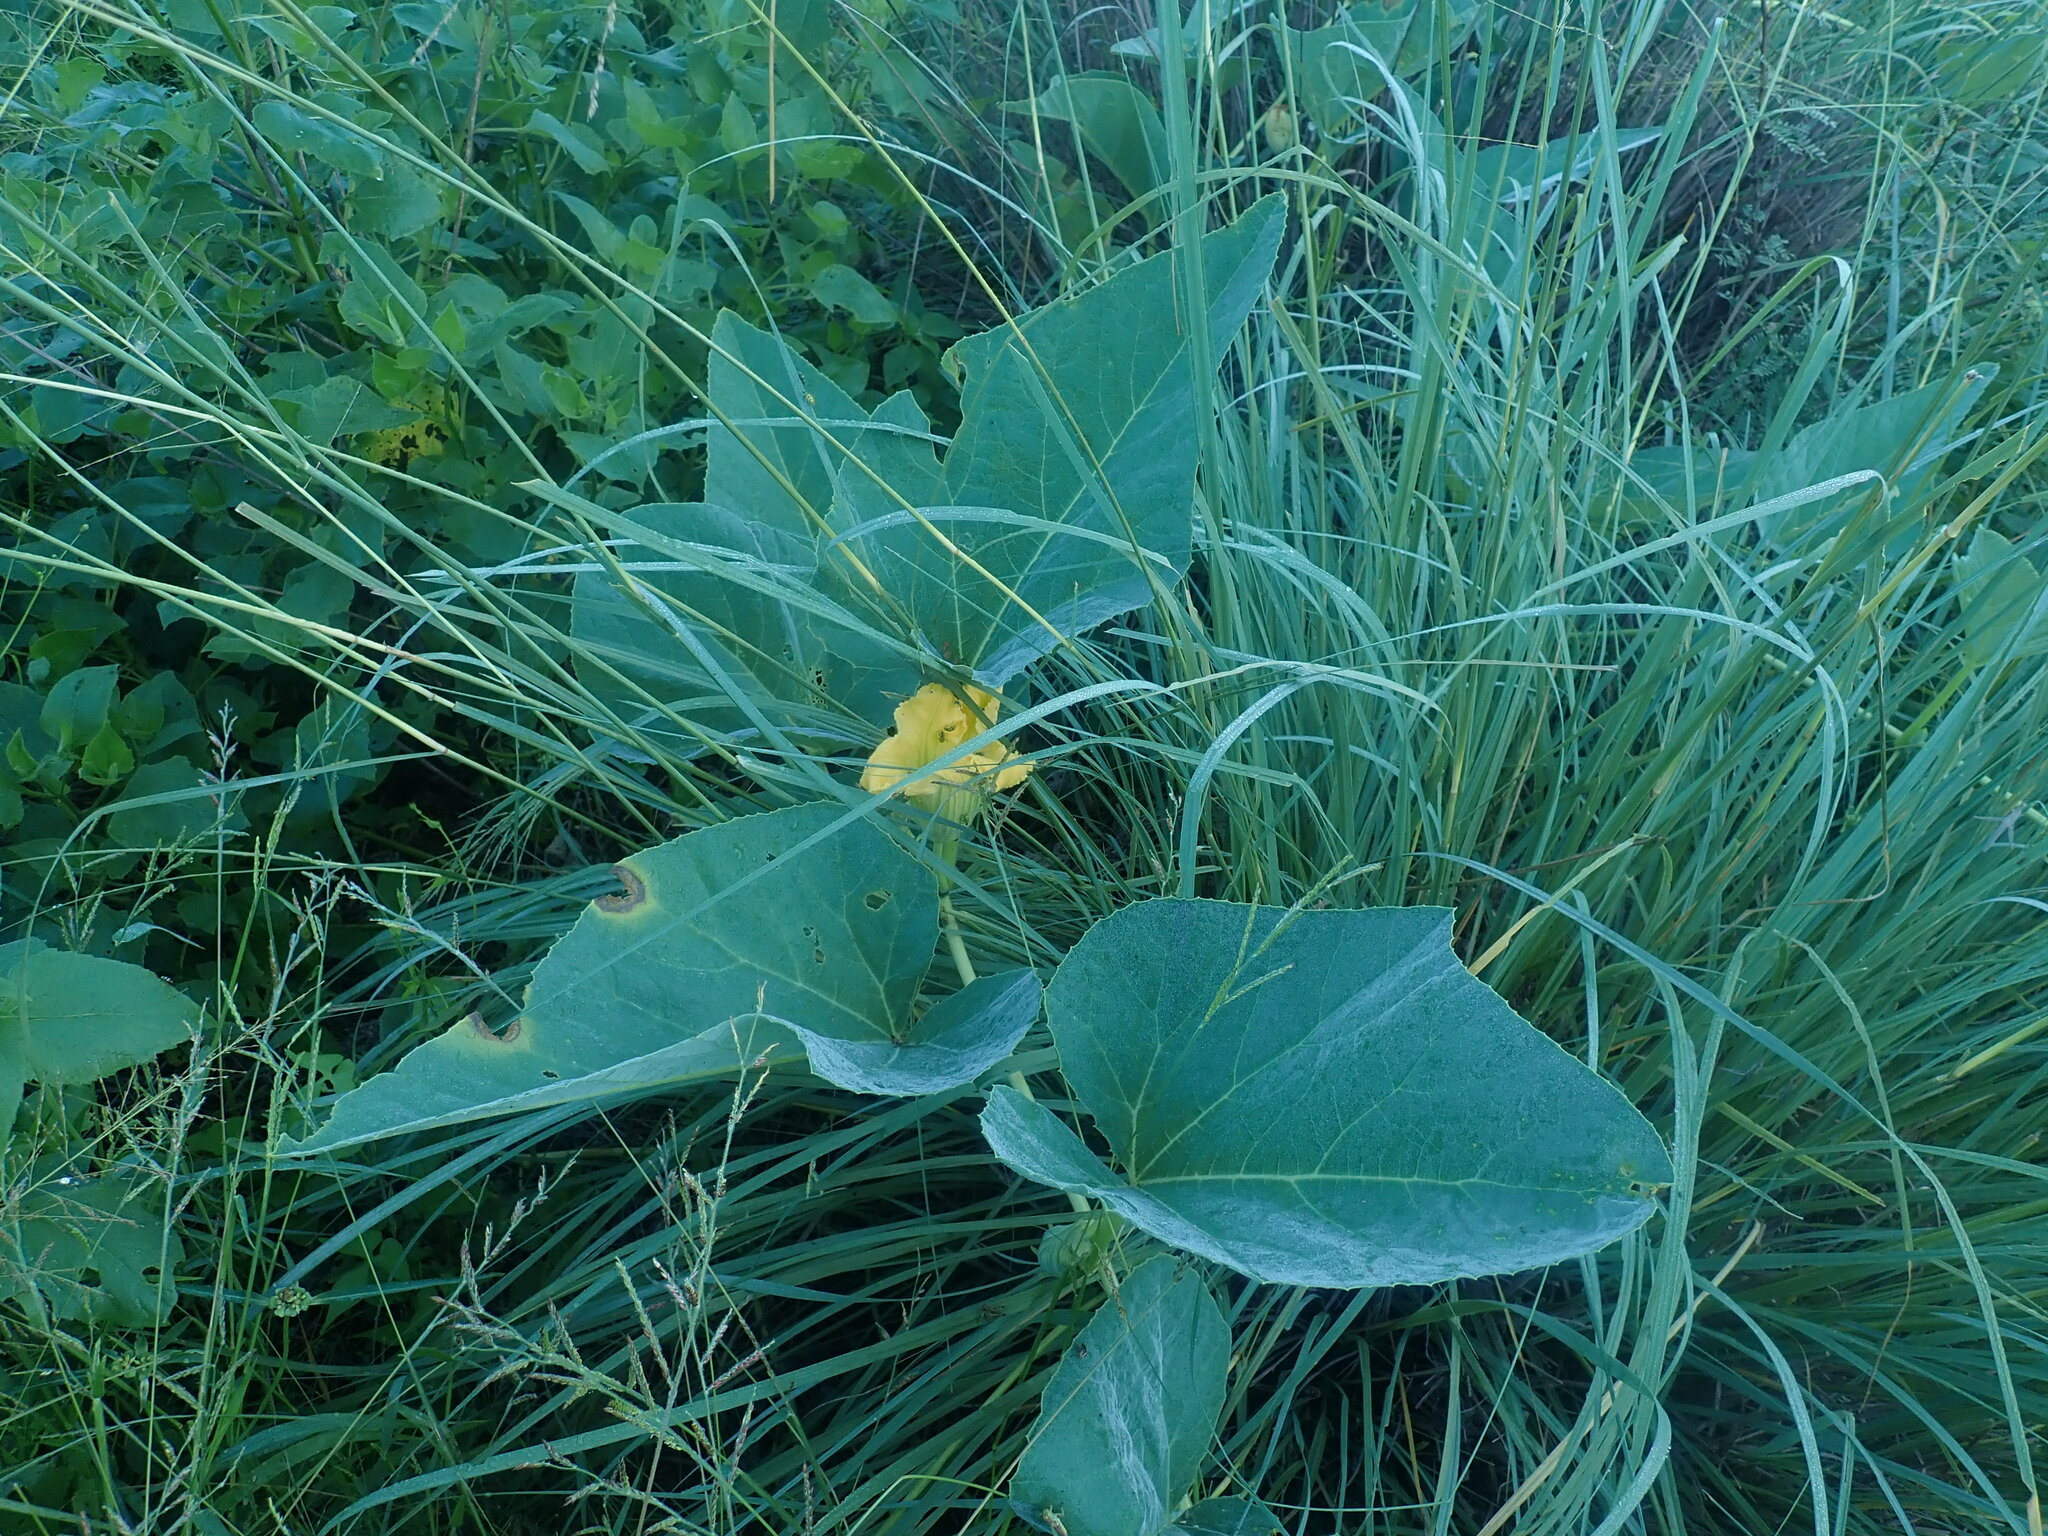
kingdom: Plantae
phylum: Tracheophyta
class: Magnoliopsida
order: Cucurbitales
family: Cucurbitaceae
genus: Cucurbita
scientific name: Cucurbita foetidissima
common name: Buffalo gourd
